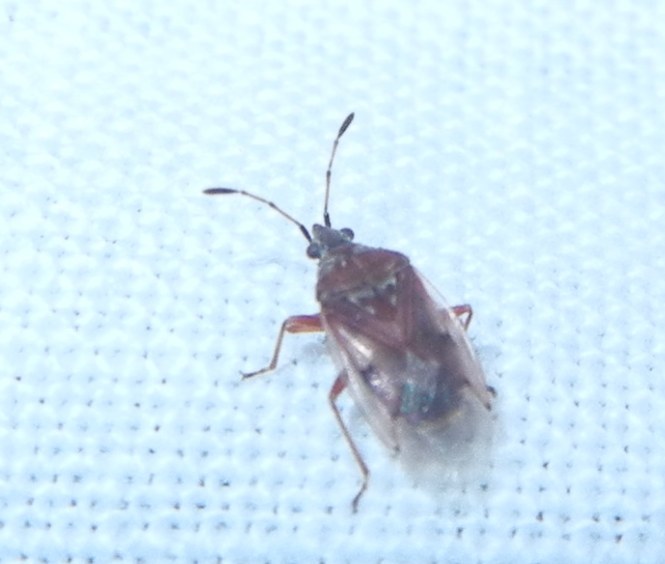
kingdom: Animalia
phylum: Arthropoda
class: Insecta
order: Hemiptera
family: Lygaeidae
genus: Kleidocerys
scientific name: Kleidocerys resedae
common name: Birch catkin bug
